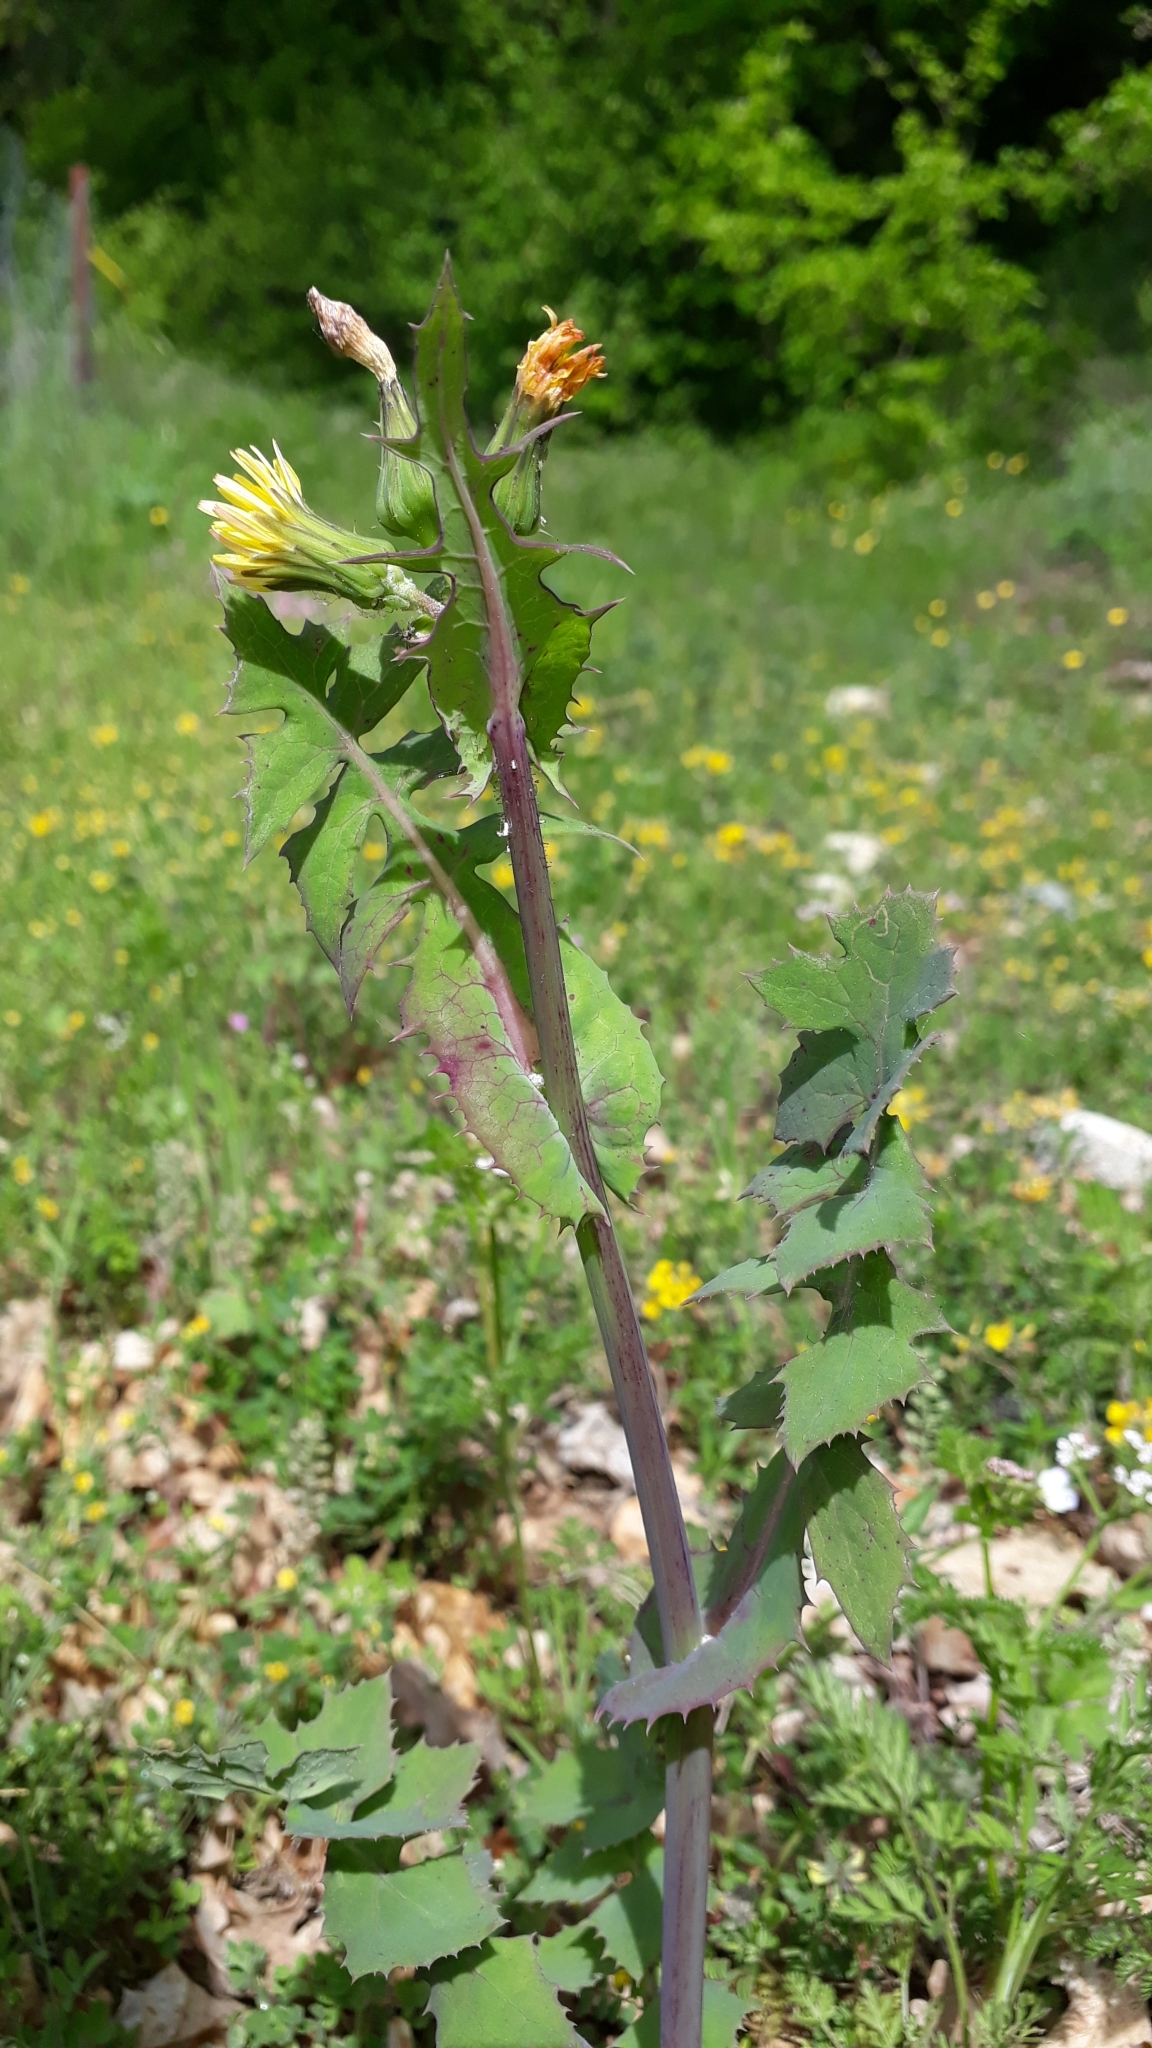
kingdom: Plantae
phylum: Tracheophyta
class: Magnoliopsida
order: Asterales
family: Asteraceae
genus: Sonchus
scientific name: Sonchus oleraceus
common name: Common sowthistle
